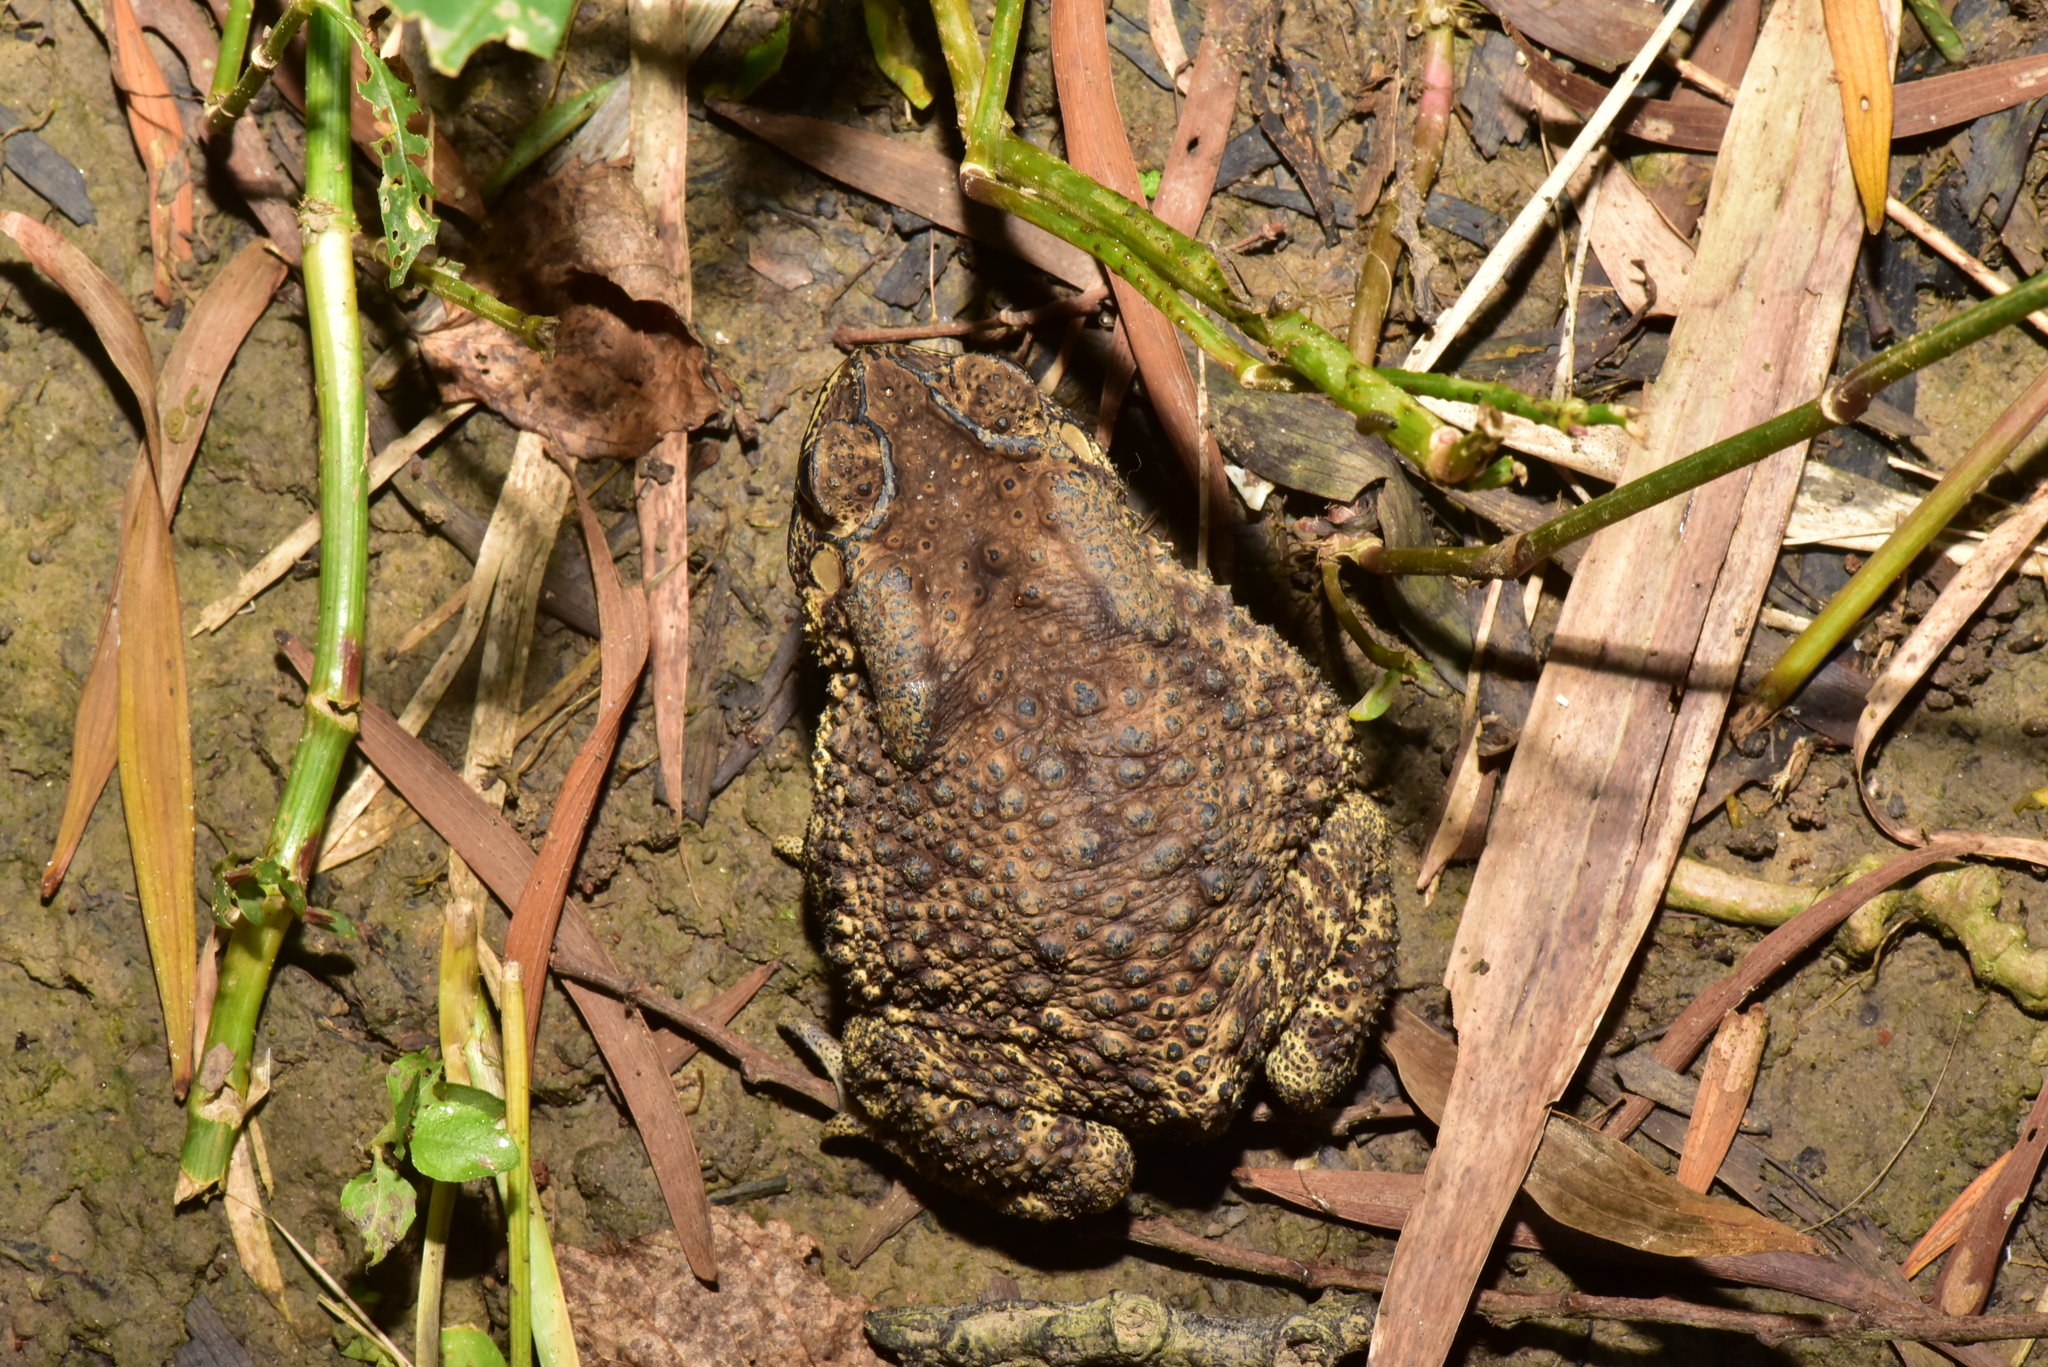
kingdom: Animalia
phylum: Chordata
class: Amphibia
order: Anura
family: Bufonidae
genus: Duttaphrynus
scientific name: Duttaphrynus melanostictus
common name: Common sunda toad
